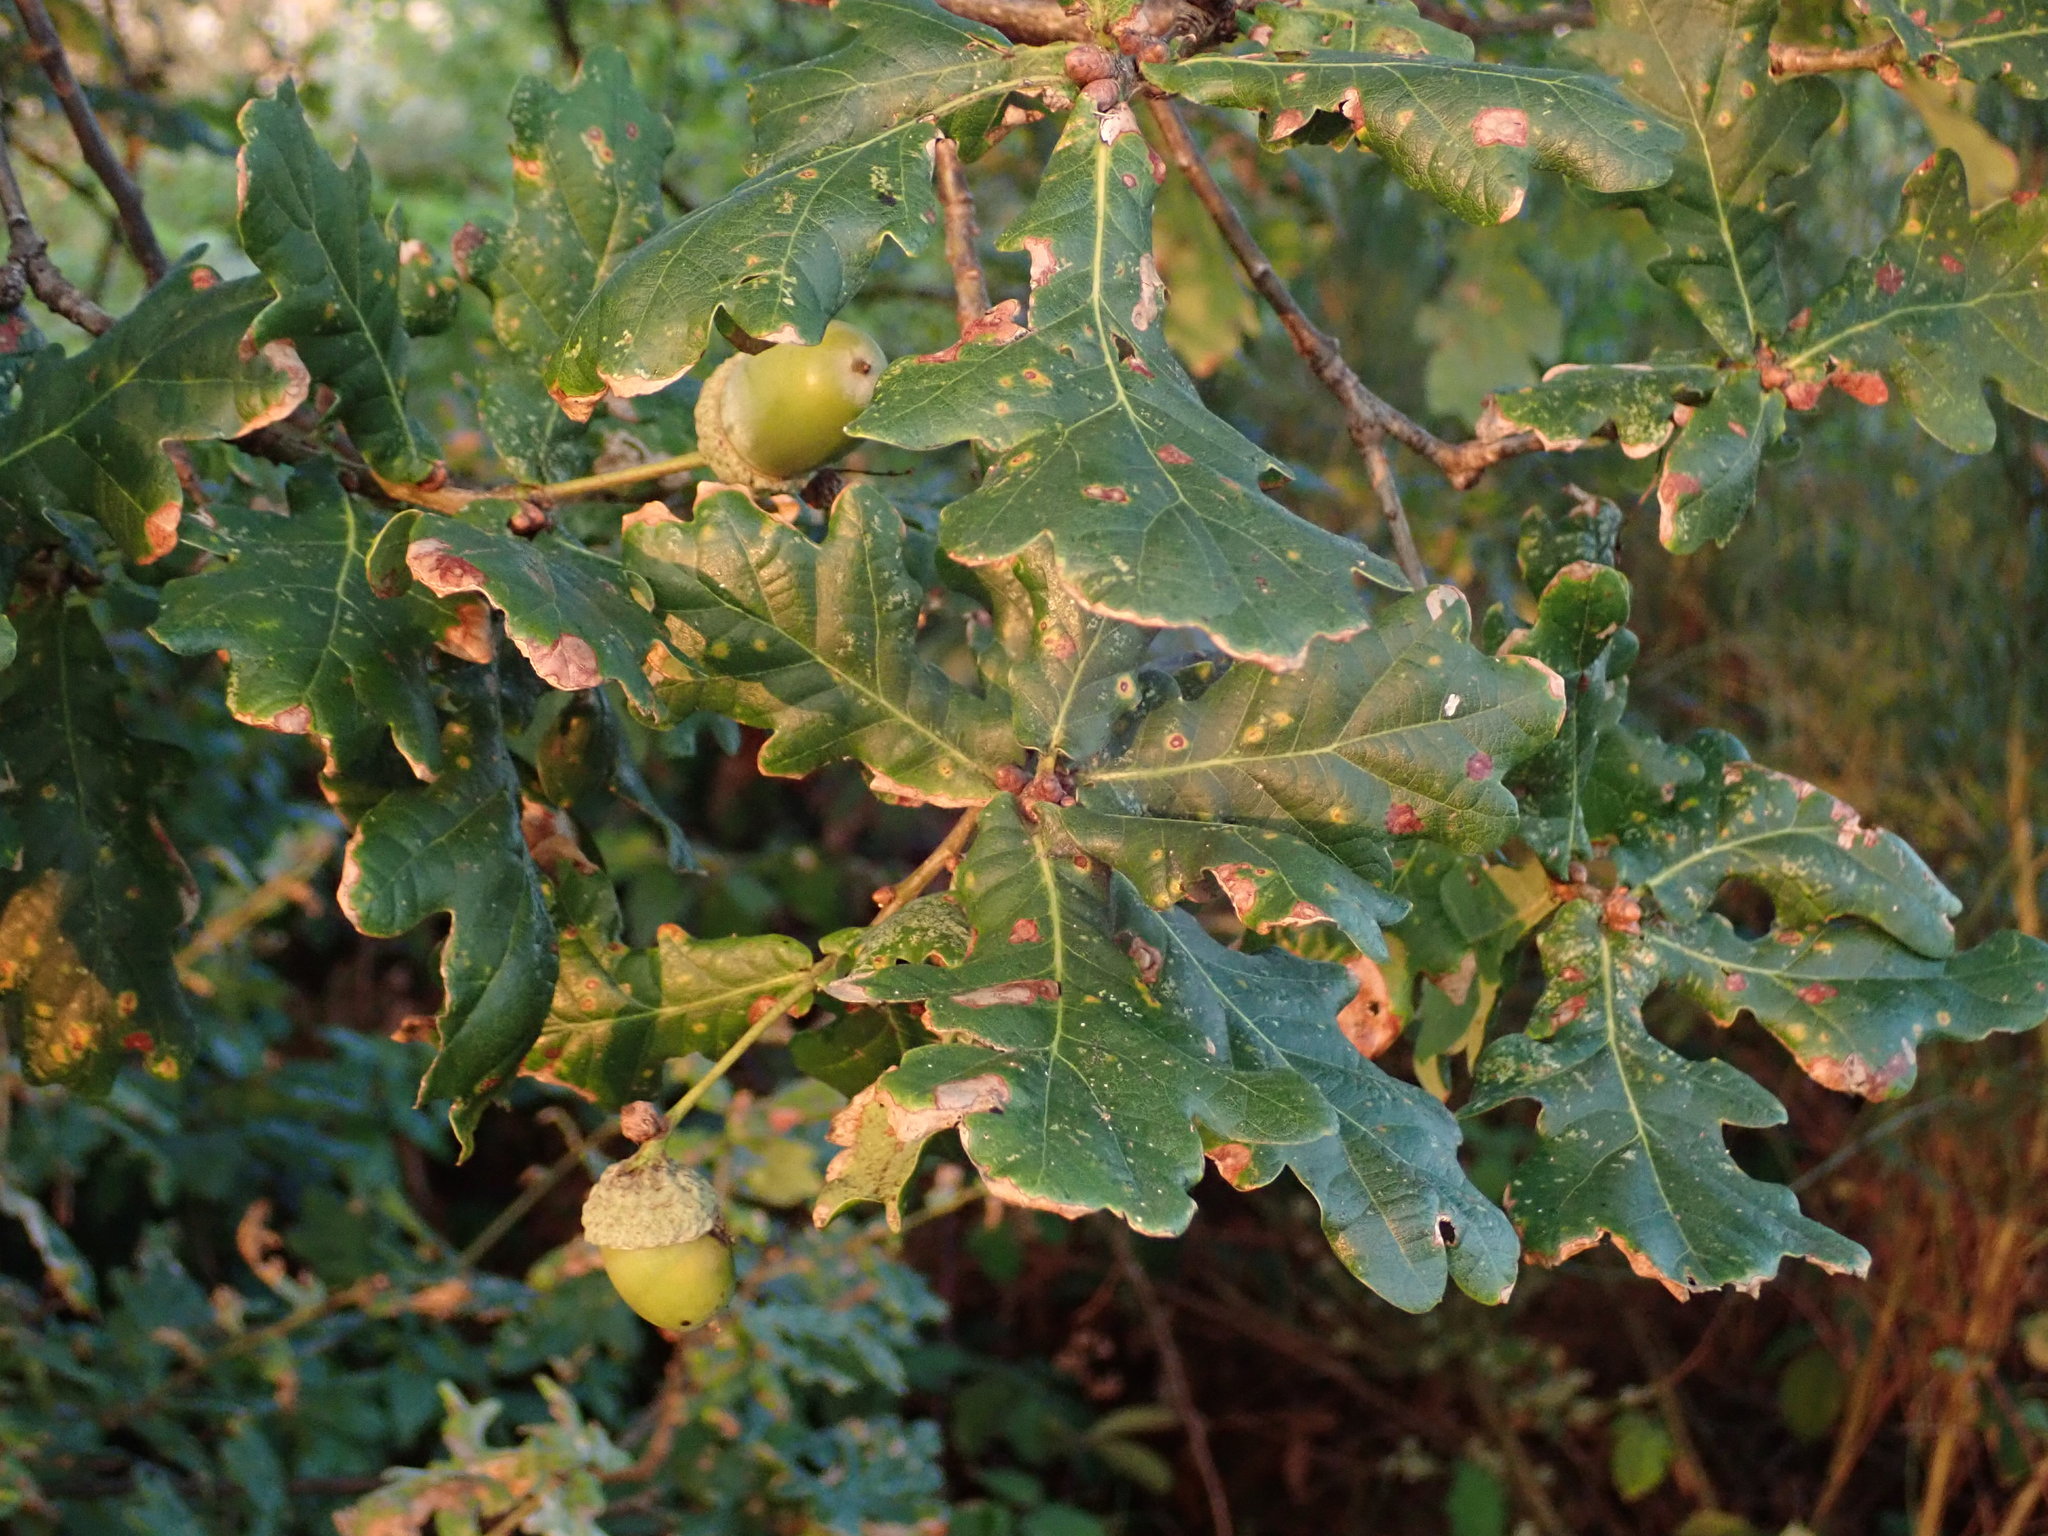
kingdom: Plantae
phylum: Tracheophyta
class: Magnoliopsida
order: Fagales
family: Fagaceae
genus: Quercus
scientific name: Quercus robur
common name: Pedunculate oak
